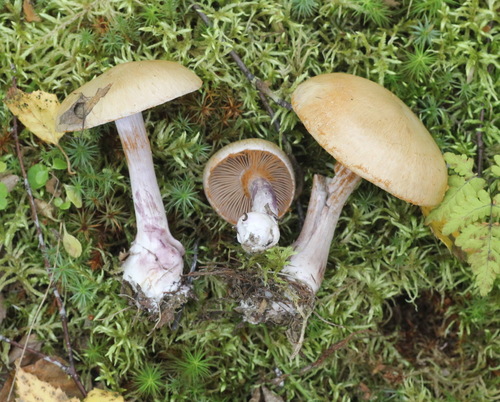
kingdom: Fungi
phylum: Basidiomycota
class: Agaricomycetes
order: Agaricales
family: Cortinariaceae
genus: Thaxterogaster
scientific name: Thaxterogaster porphyropus
